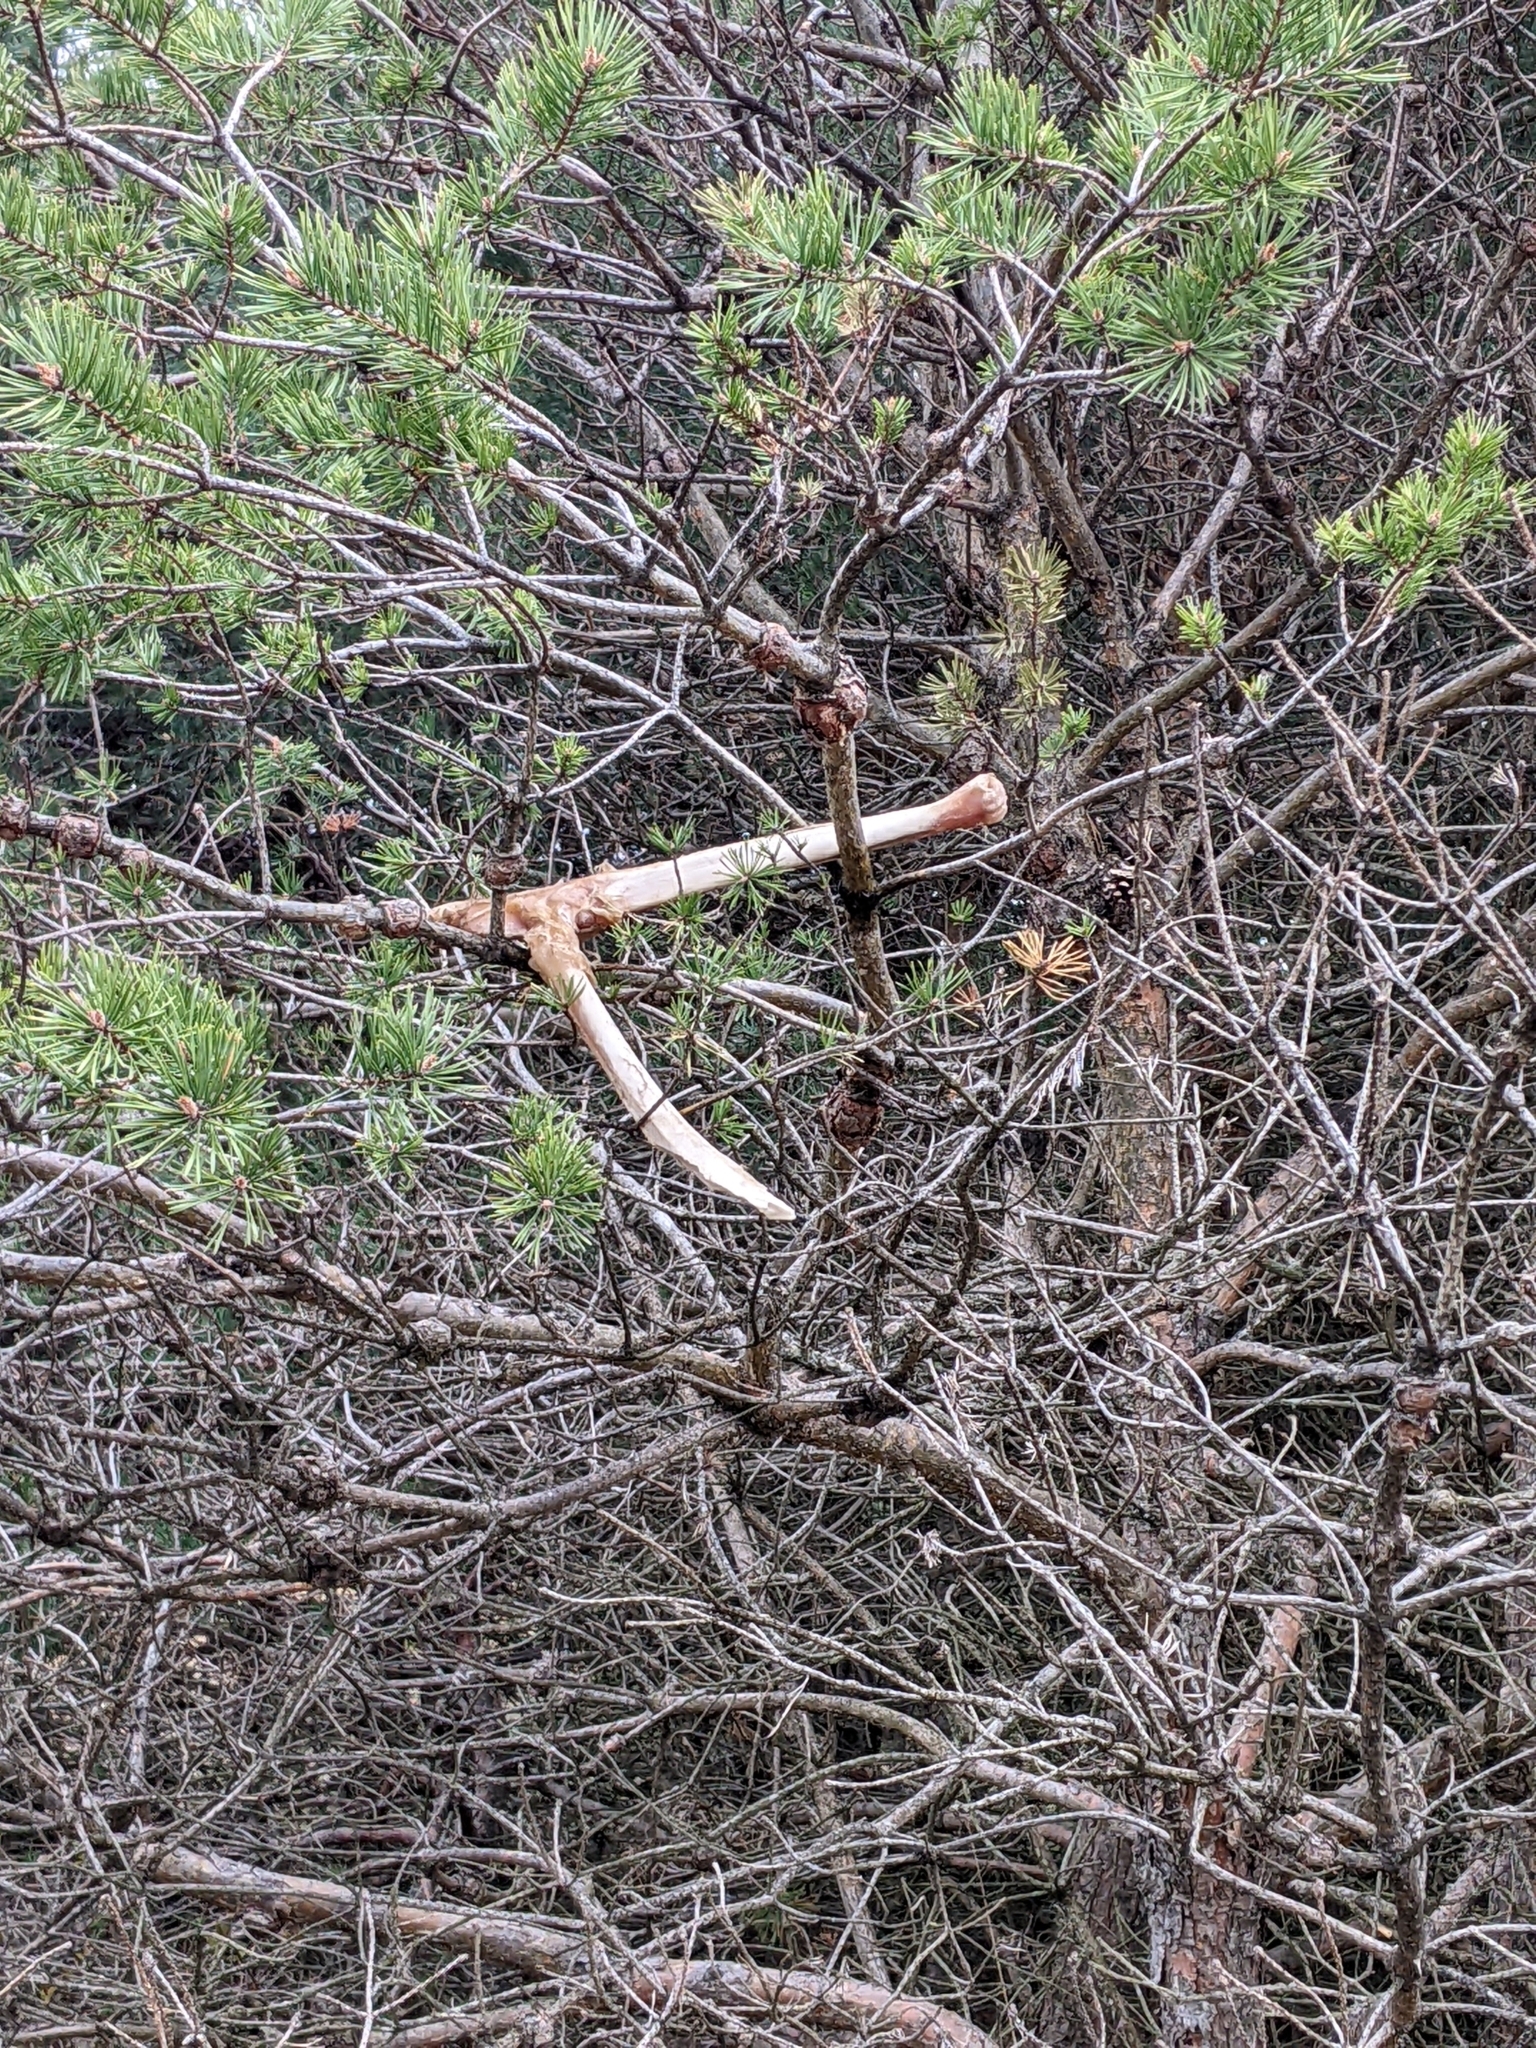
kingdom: Animalia
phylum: Chordata
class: Mammalia
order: Artiodactyla
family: Cervidae
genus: Odocoileus
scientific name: Odocoileus virginianus
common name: White-tailed deer
